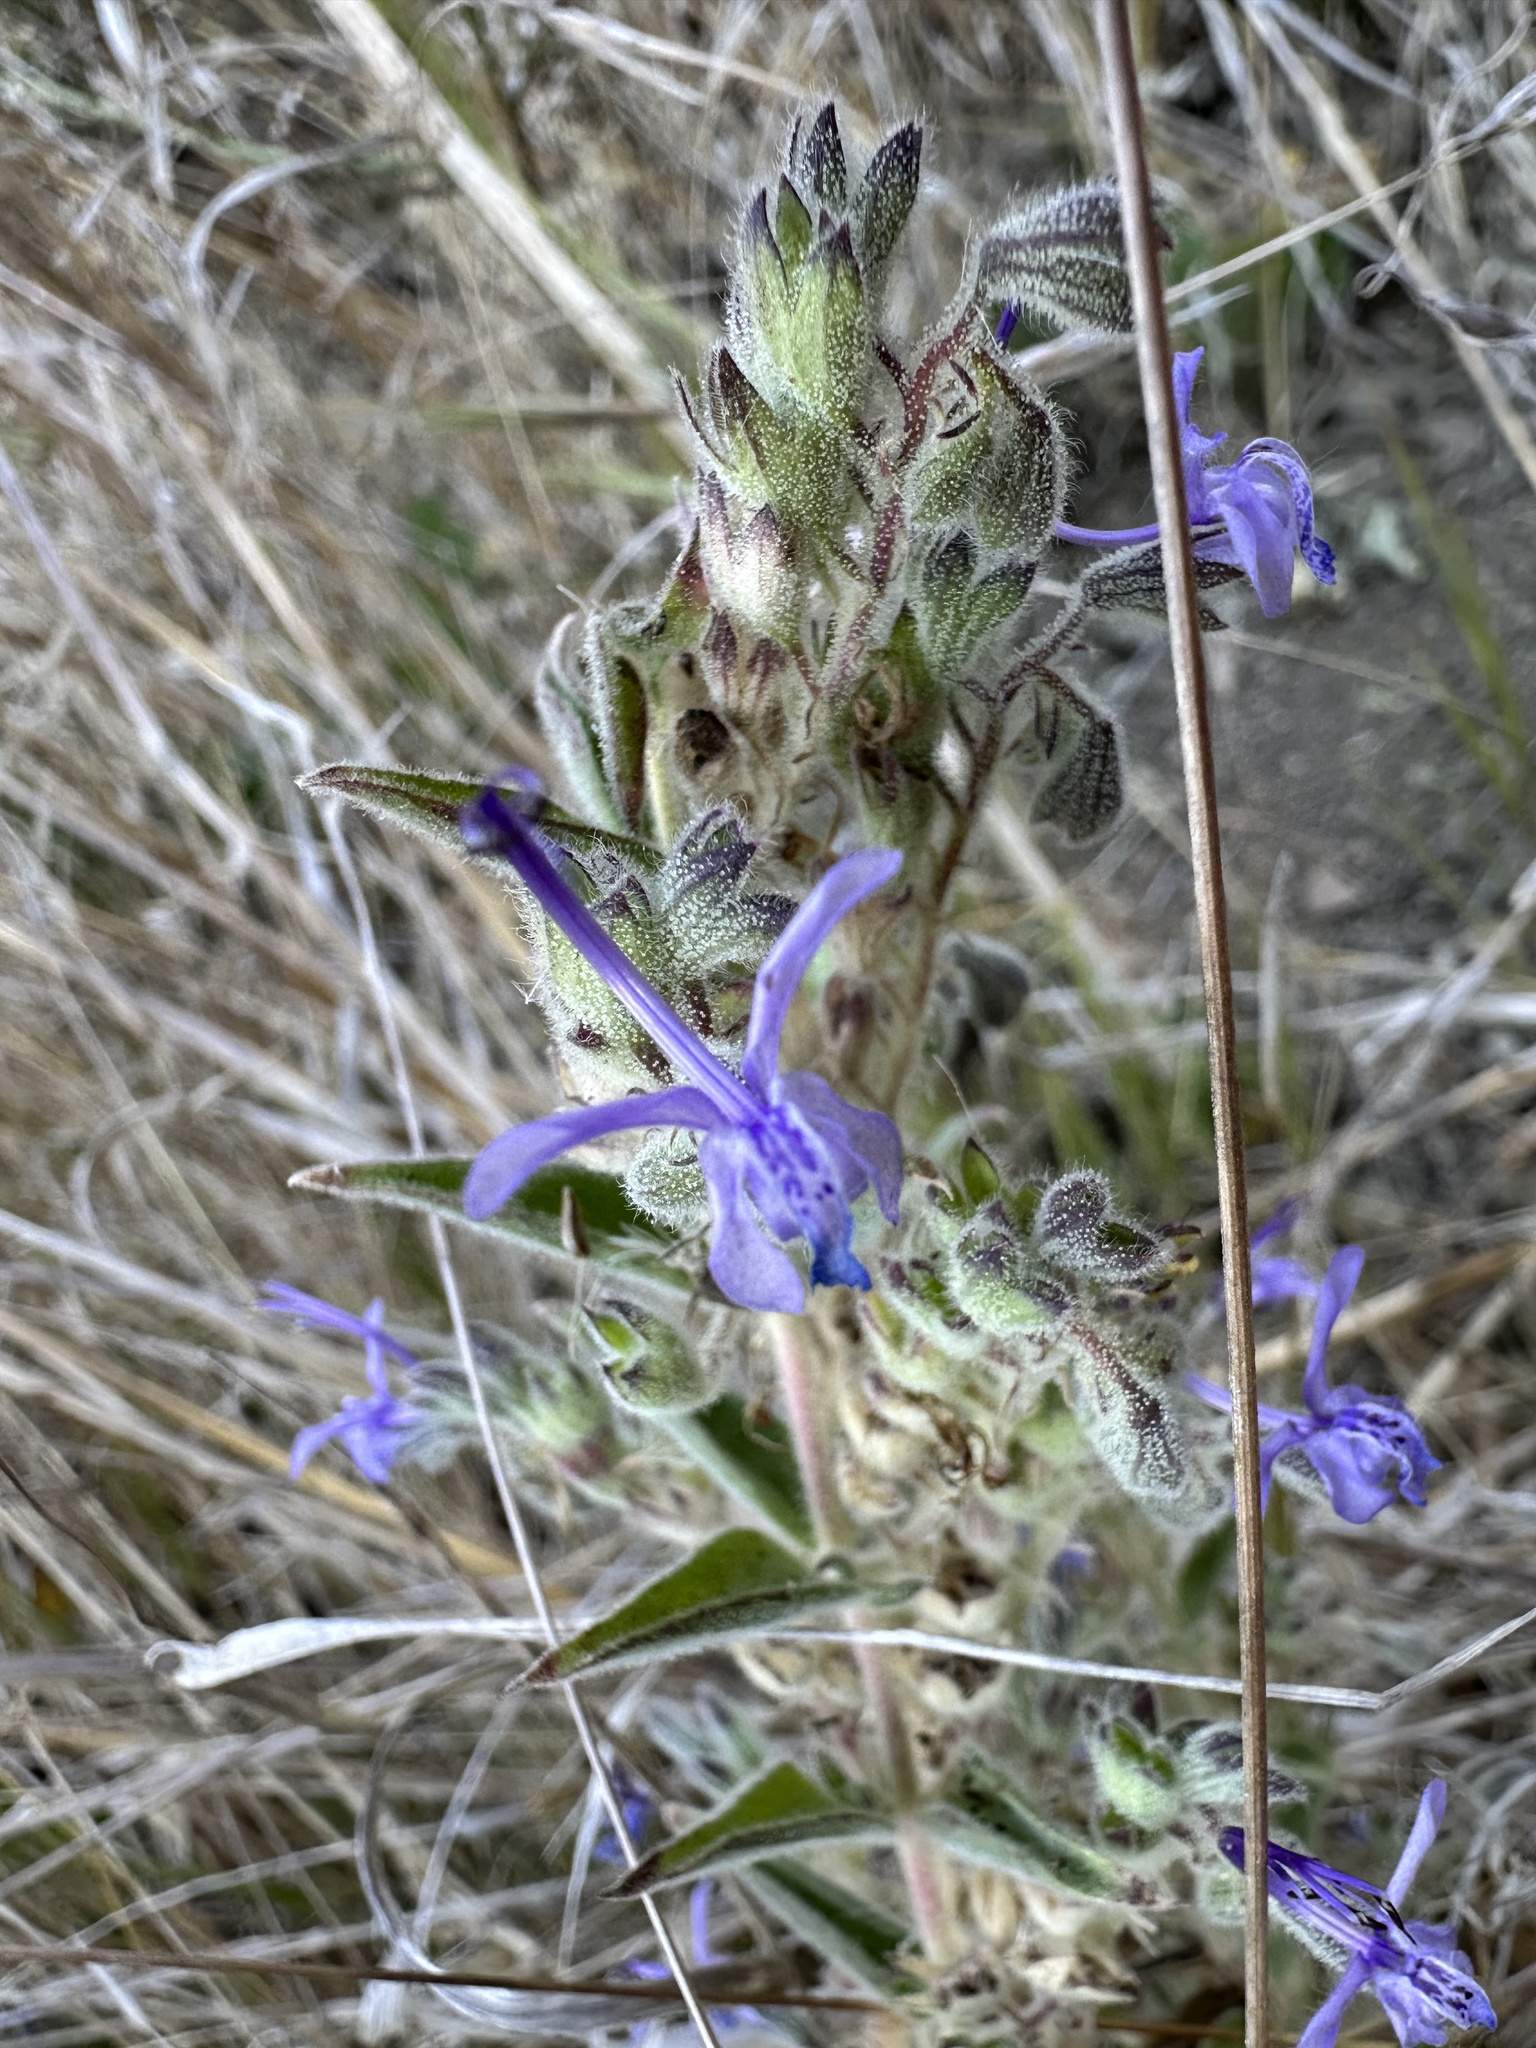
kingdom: Plantae
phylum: Tracheophyta
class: Magnoliopsida
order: Lamiales
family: Lamiaceae
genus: Trichostema
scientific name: Trichostema lanceolatum
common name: Vinegar-weed
